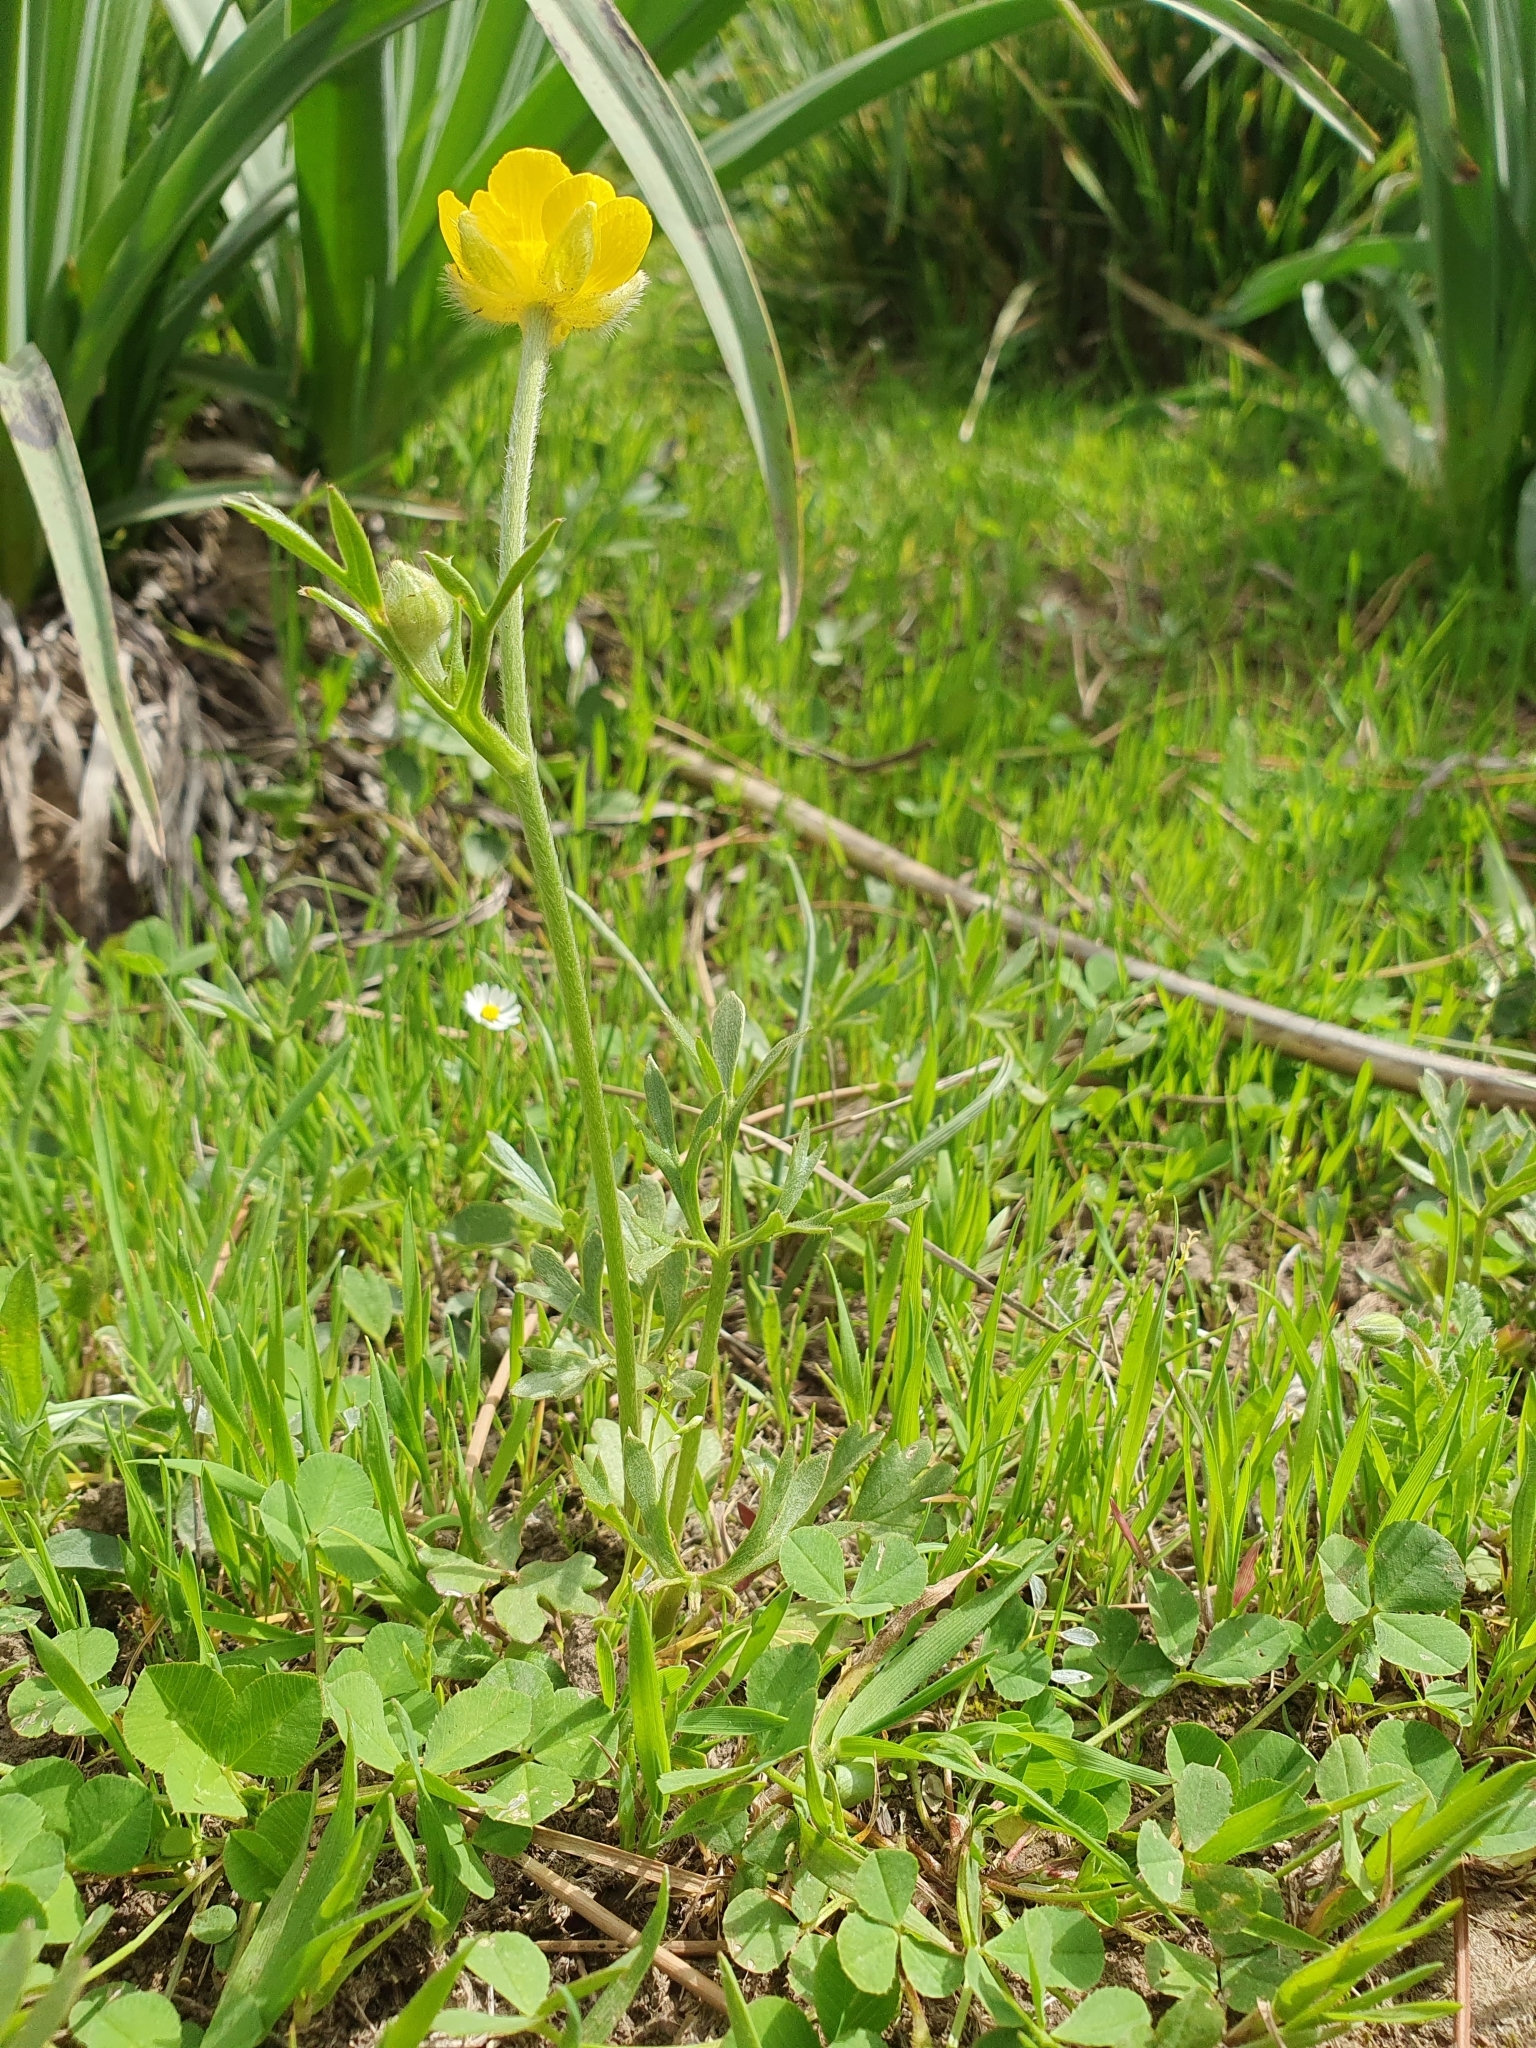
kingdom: Plantae
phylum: Tracheophyta
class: Magnoliopsida
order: Ranunculales
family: Ranunculaceae
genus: Ranunculus
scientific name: Ranunculus paludosus
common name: Jersey buttercup
